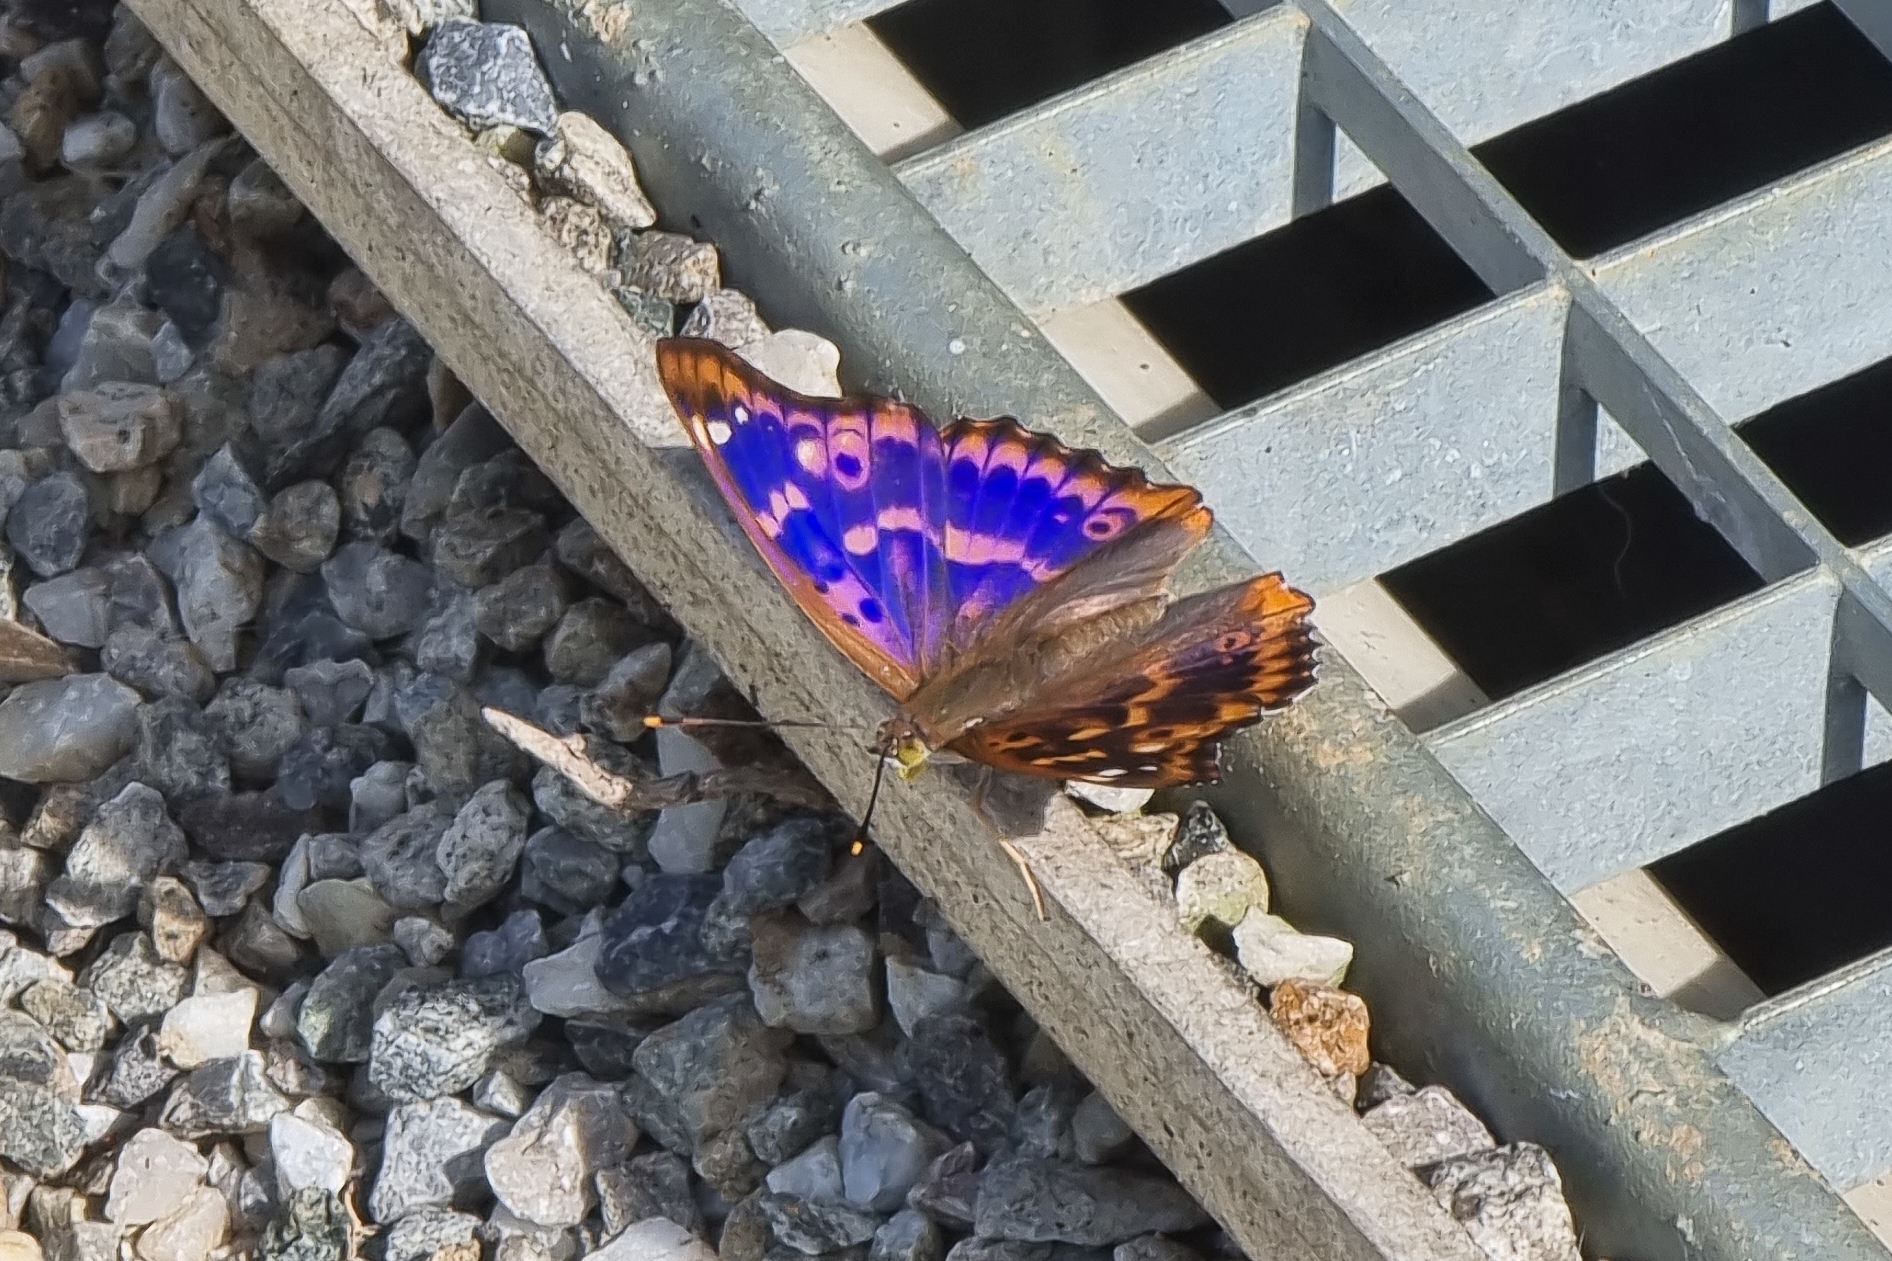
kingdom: Animalia
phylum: Arthropoda
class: Insecta
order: Lepidoptera
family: Nymphalidae
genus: Apatura
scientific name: Apatura ilia
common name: Lesser purple emperor
